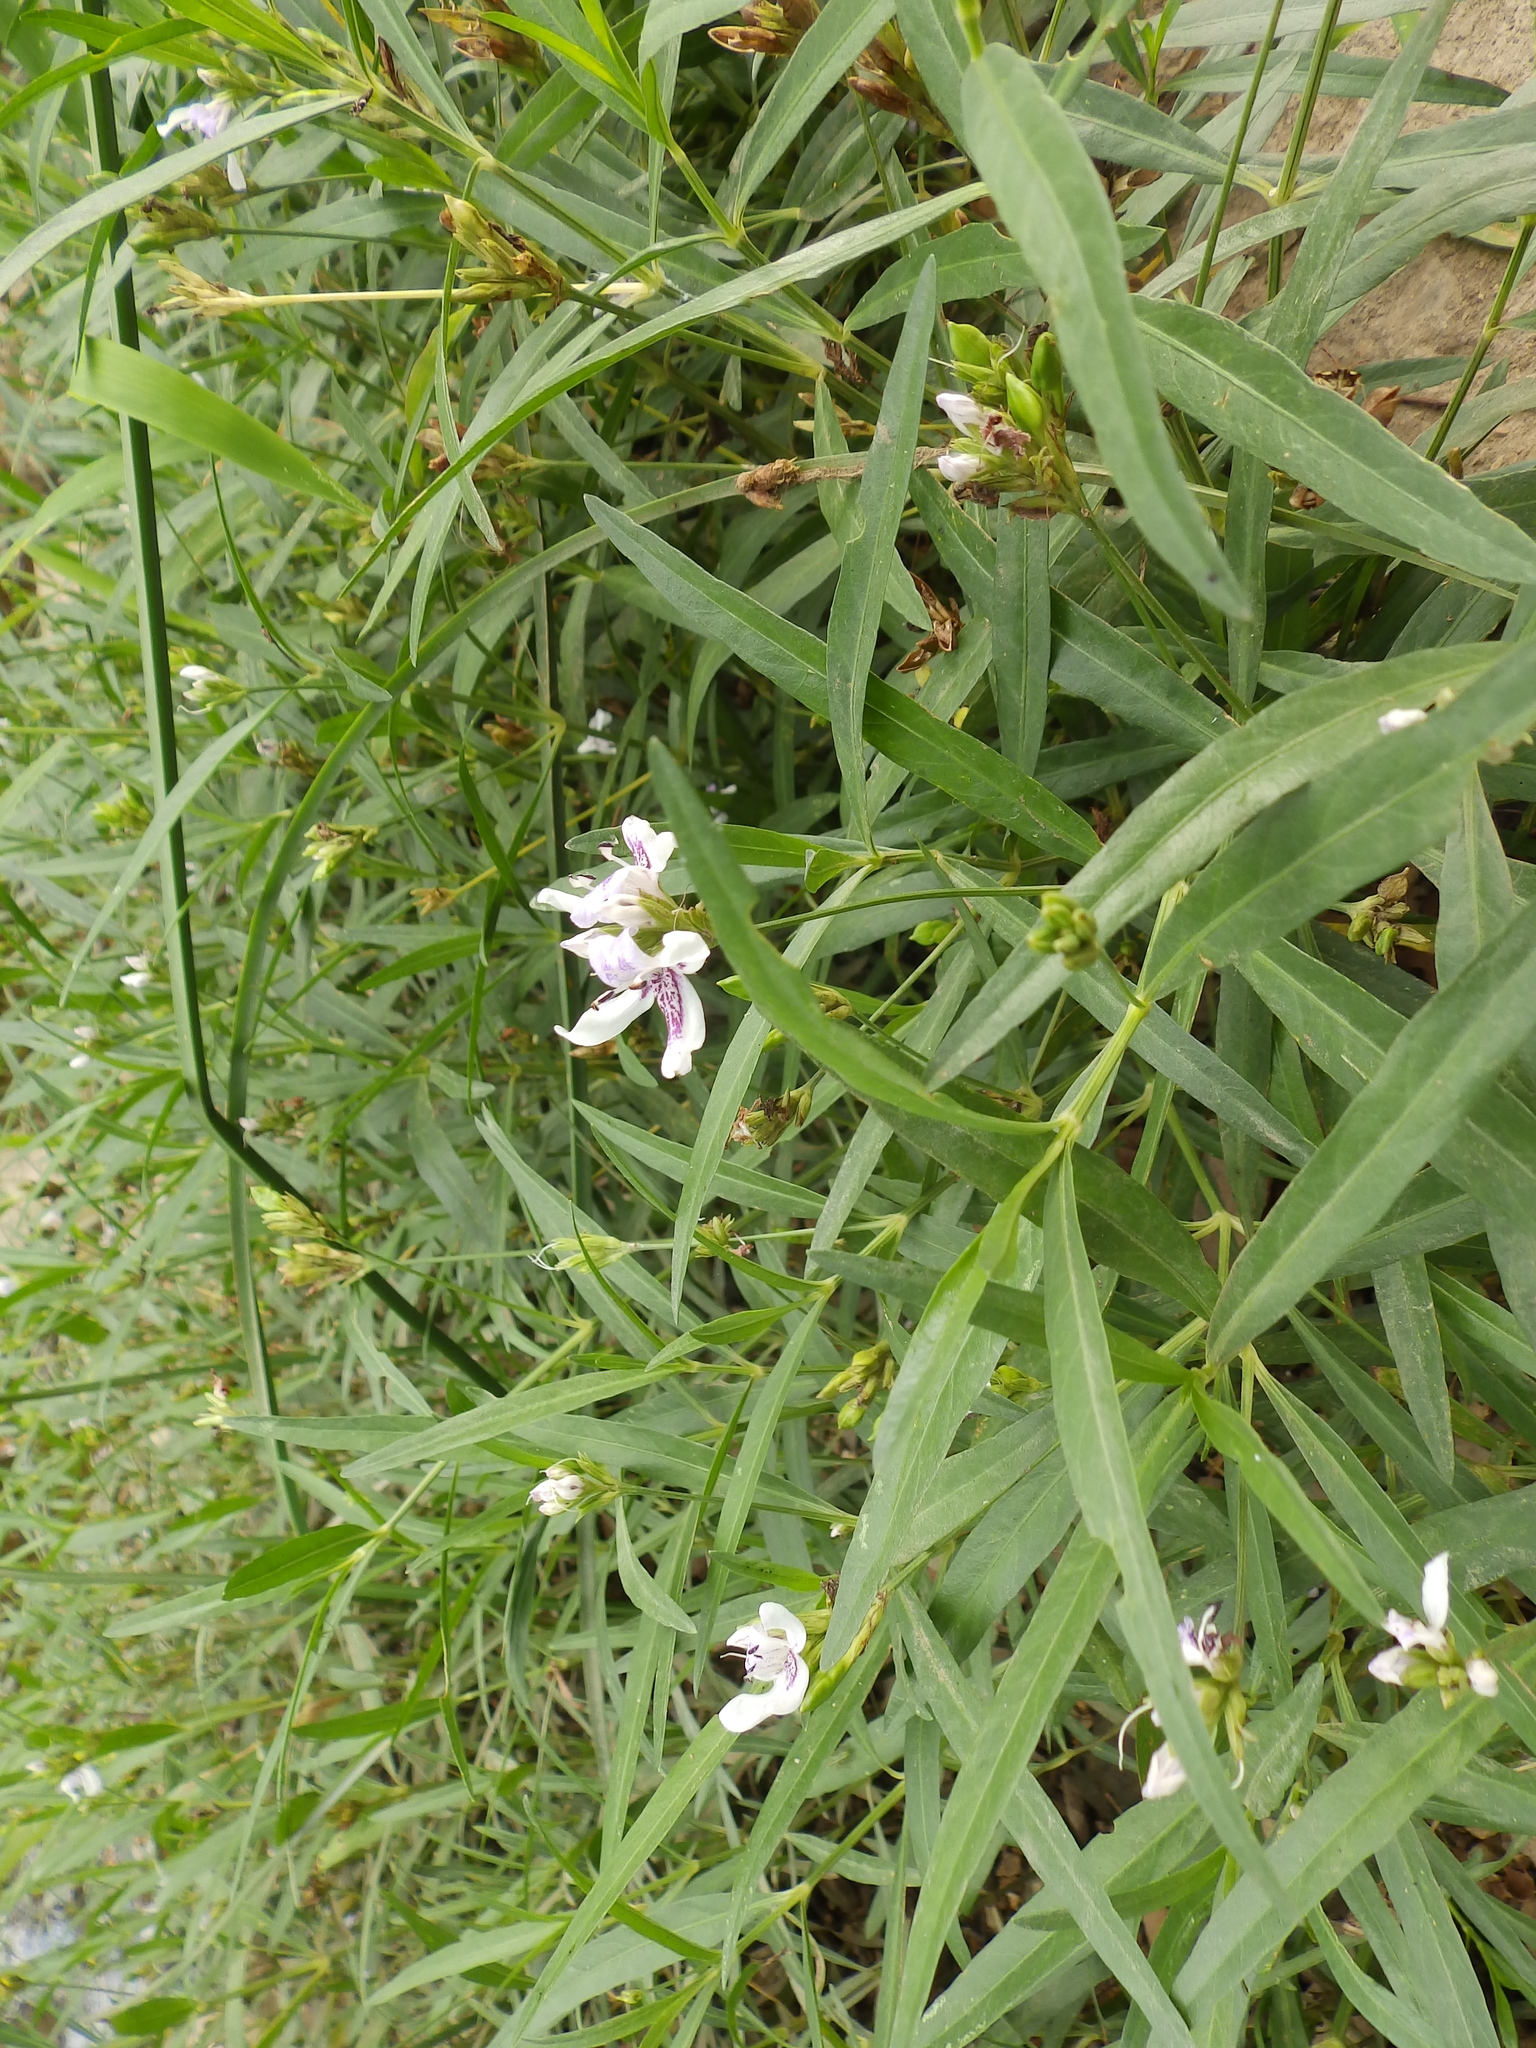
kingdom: Plantae
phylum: Tracheophyta
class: Magnoliopsida
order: Lamiales
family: Acanthaceae
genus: Dianthera
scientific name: Dianthera americana
